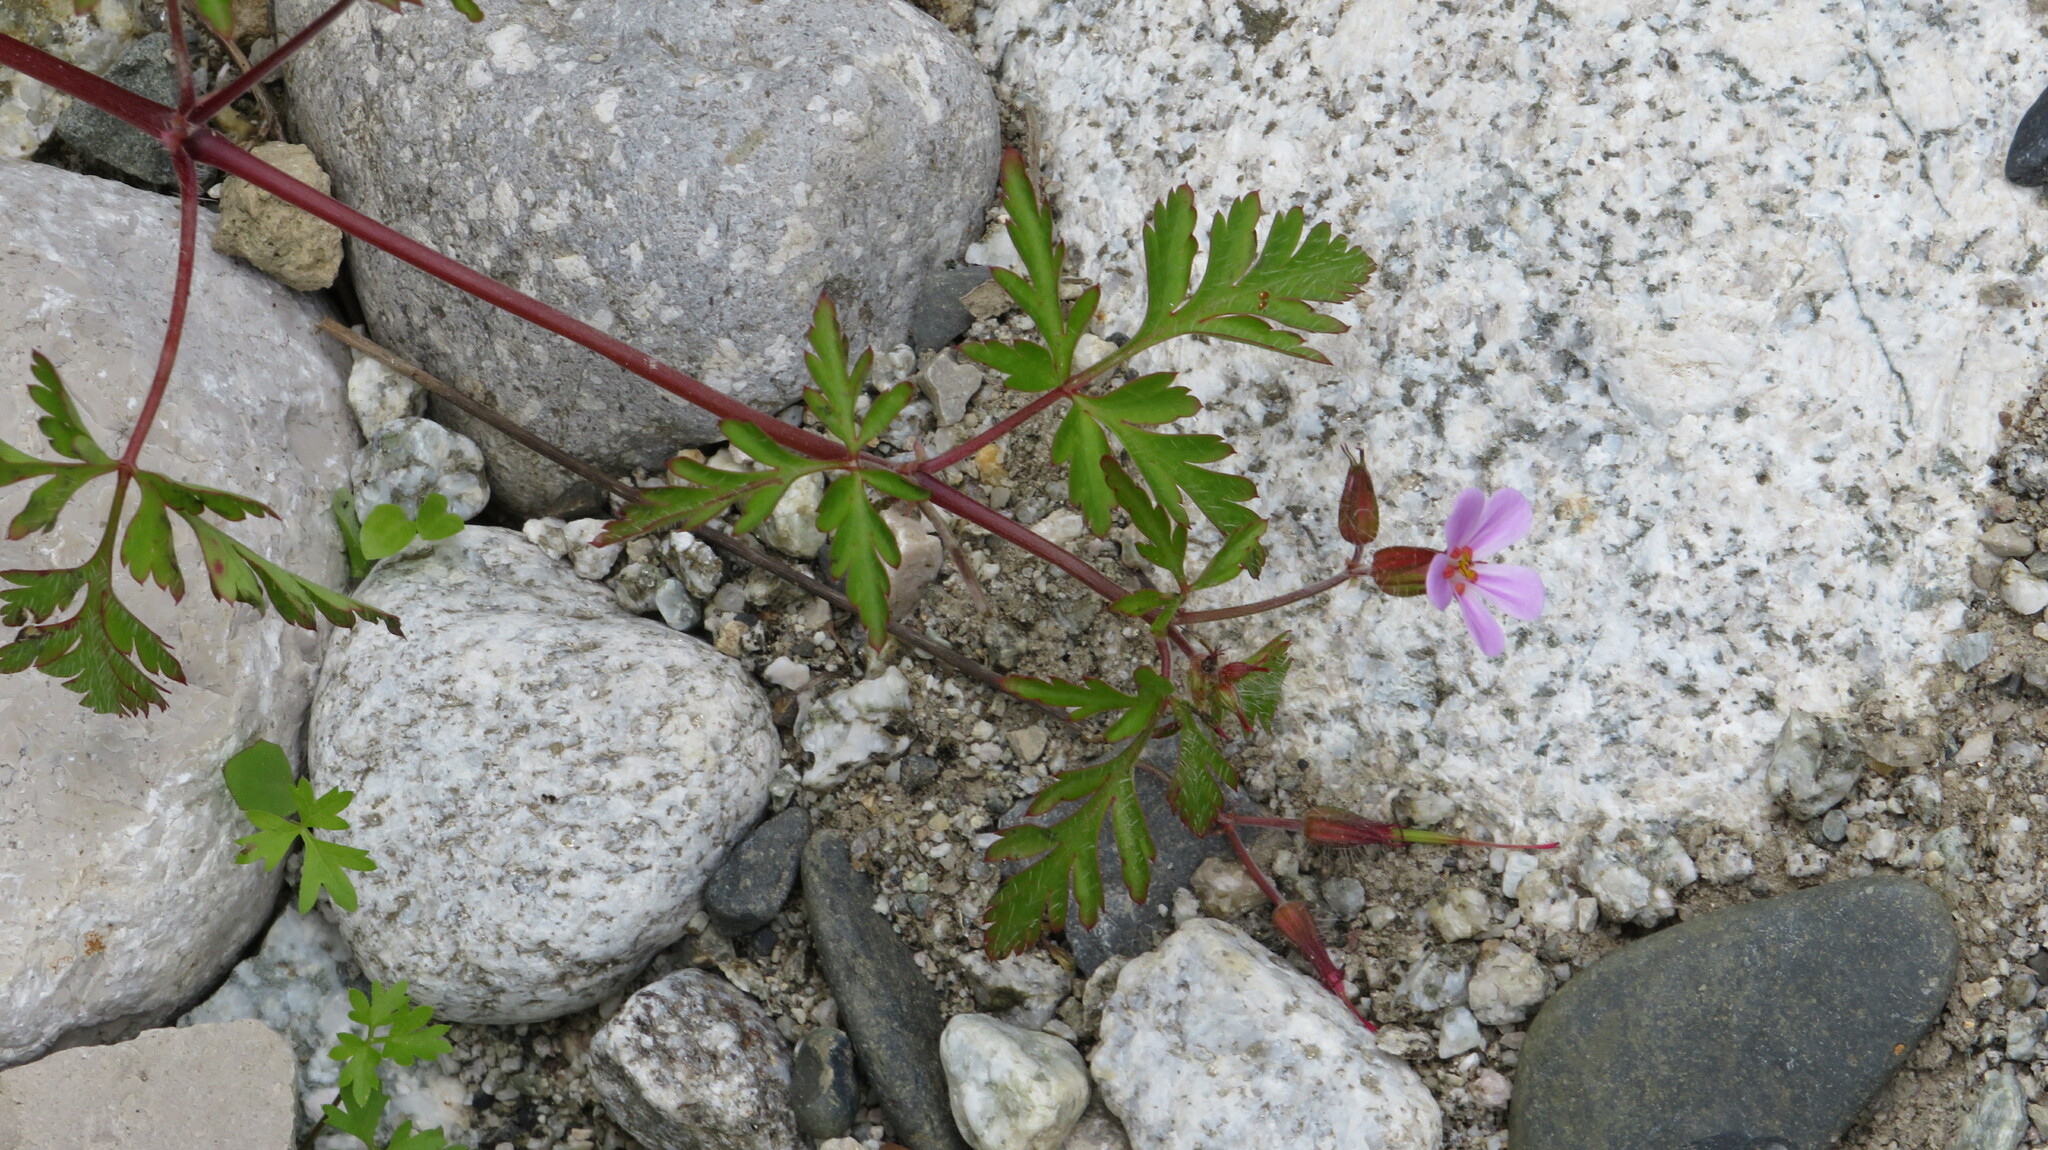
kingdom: Plantae
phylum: Tracheophyta
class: Magnoliopsida
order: Geraniales
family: Geraniaceae
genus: Geranium
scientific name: Geranium robertianum
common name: Herb-robert
